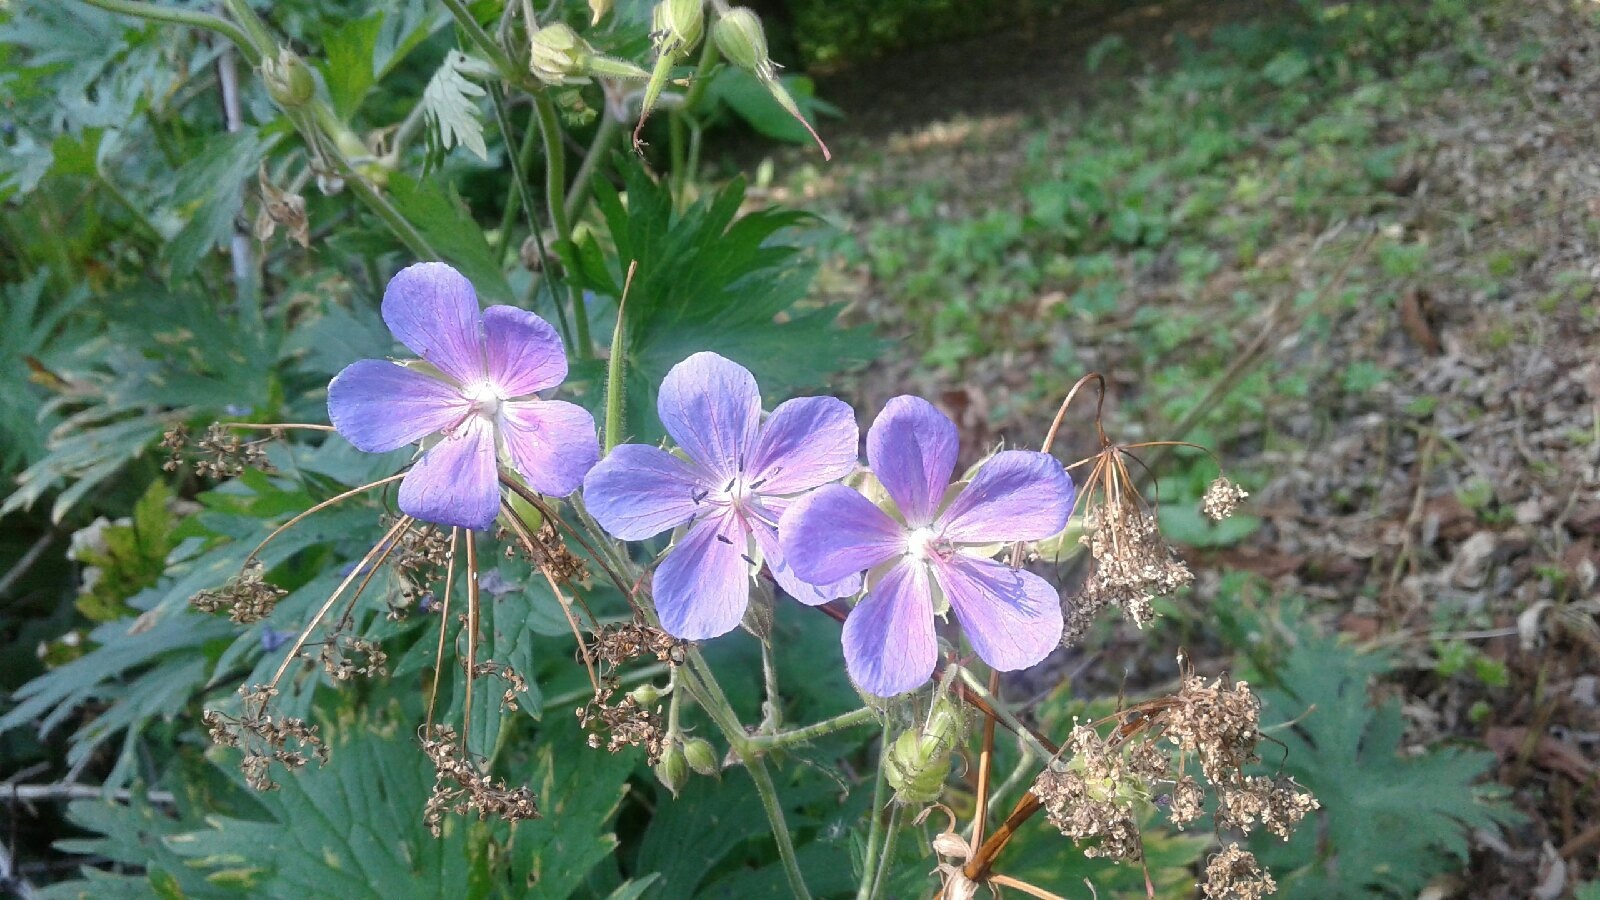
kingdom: Plantae
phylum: Tracheophyta
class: Magnoliopsida
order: Geraniales
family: Geraniaceae
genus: Geranium
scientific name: Geranium pratense
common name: Meadow crane's-bill
